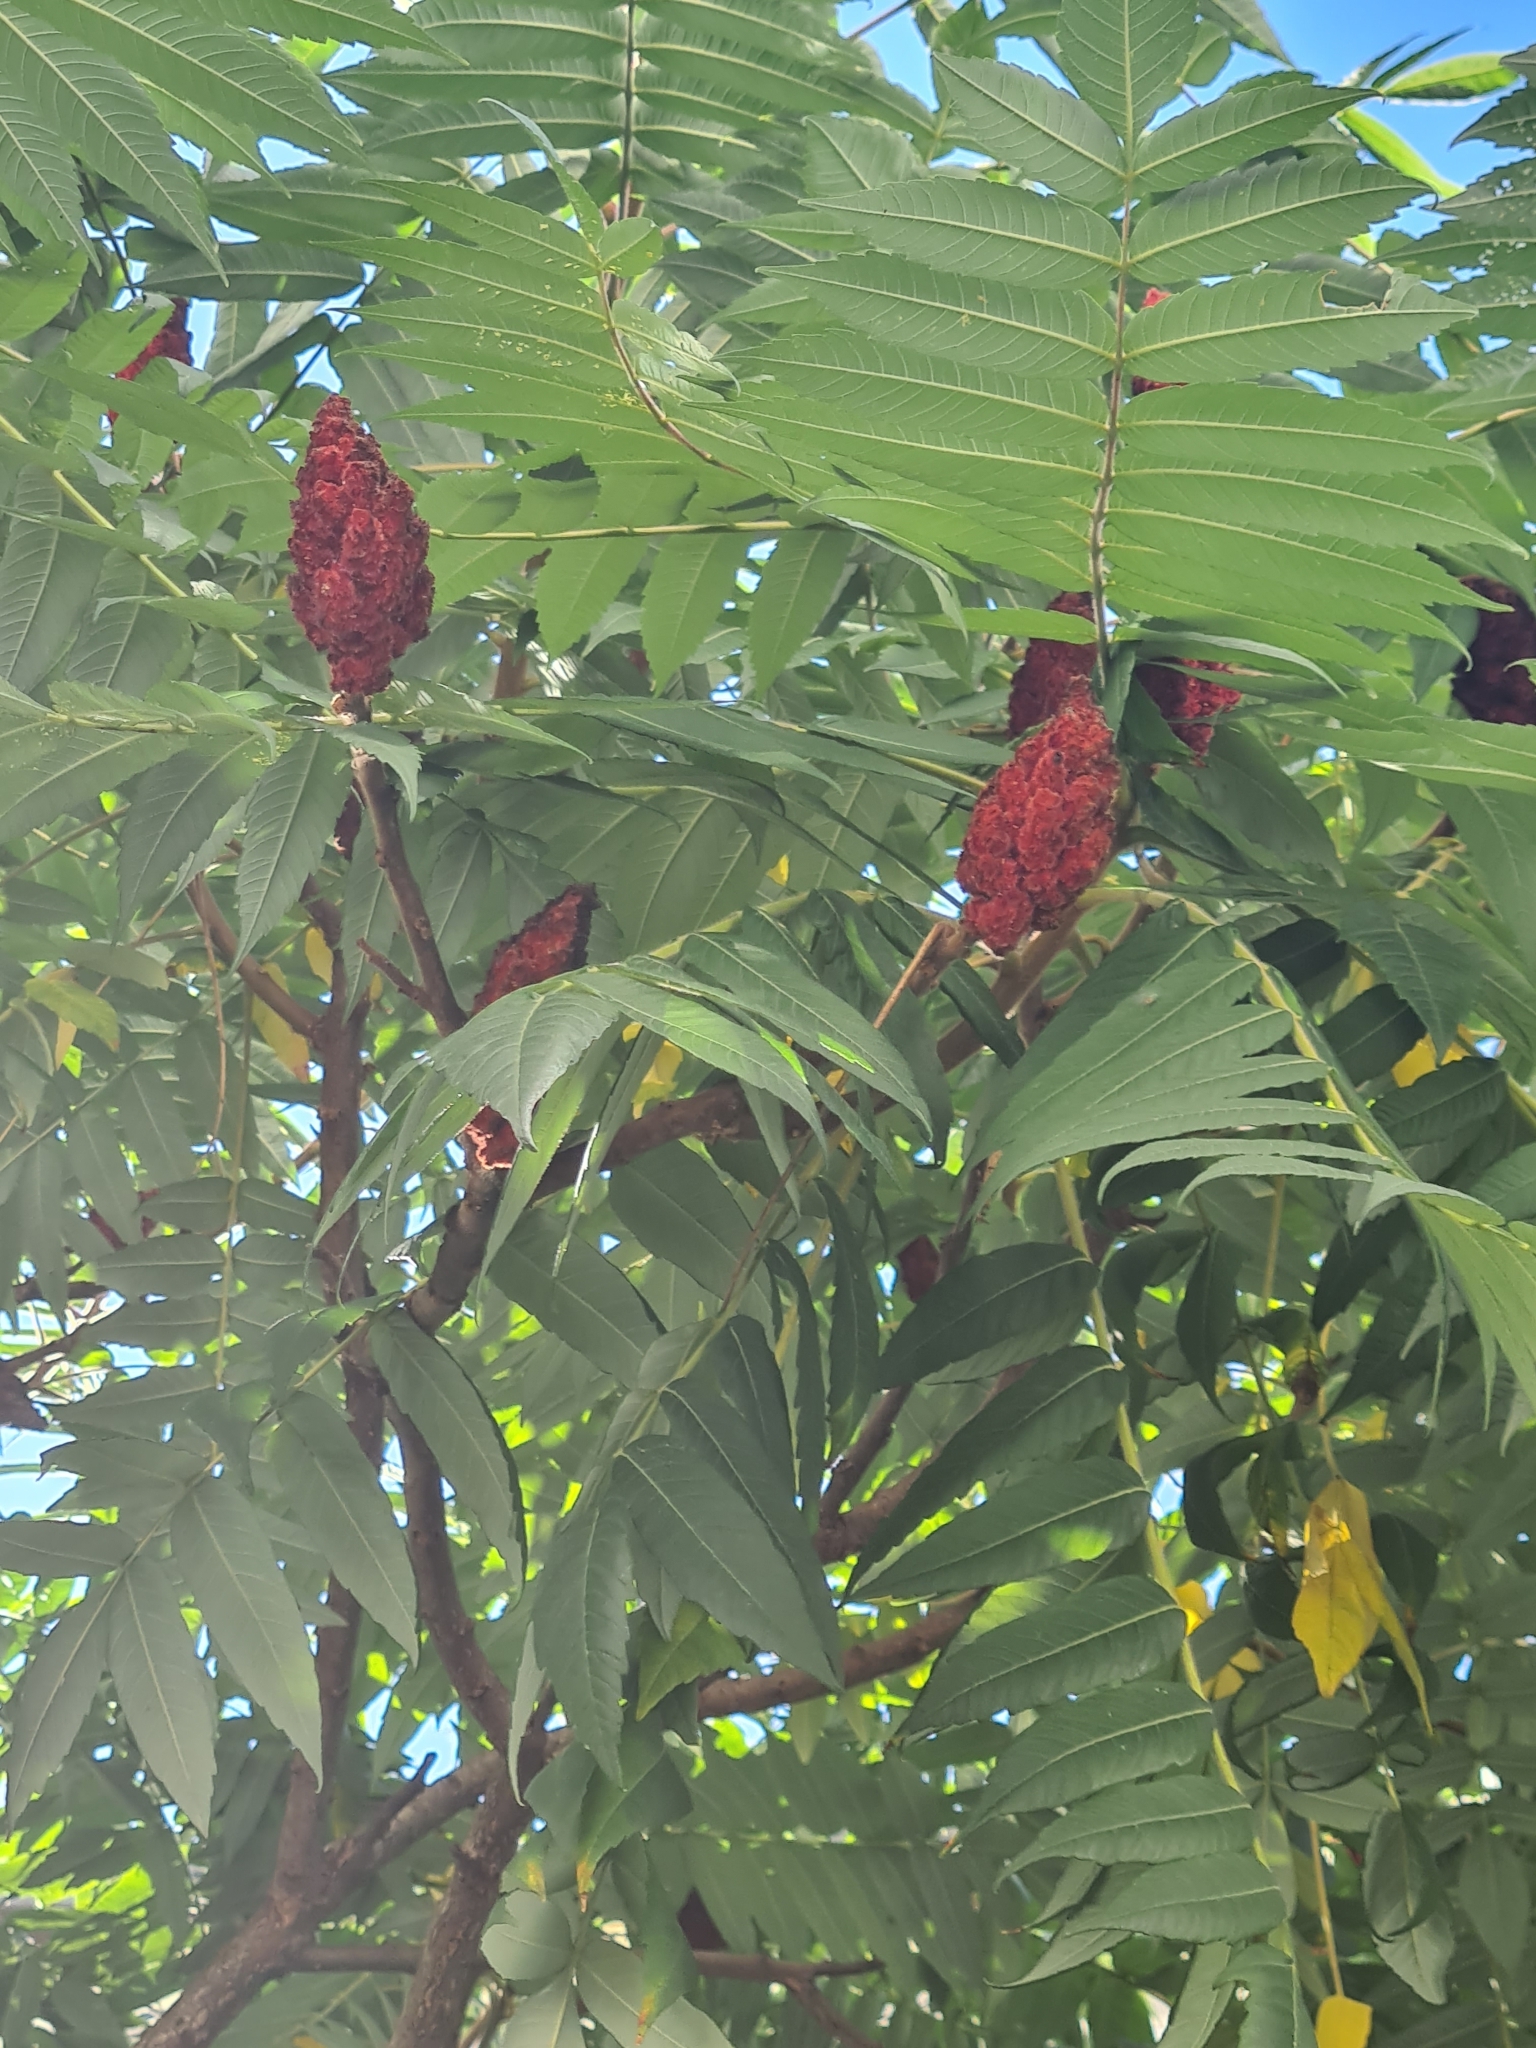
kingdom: Plantae
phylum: Tracheophyta
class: Magnoliopsida
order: Sapindales
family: Anacardiaceae
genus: Rhus
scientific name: Rhus typhina
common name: Staghorn sumac
